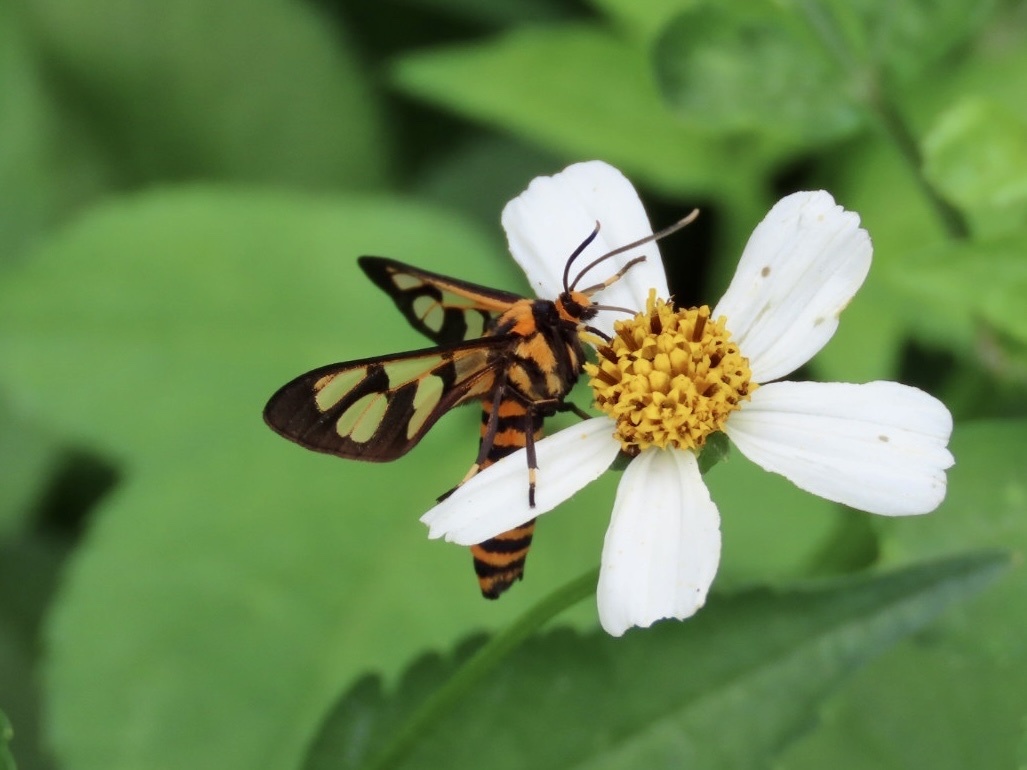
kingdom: Animalia
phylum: Arthropoda
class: Insecta
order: Lepidoptera
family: Erebidae
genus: Amata
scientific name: Amata polymita
